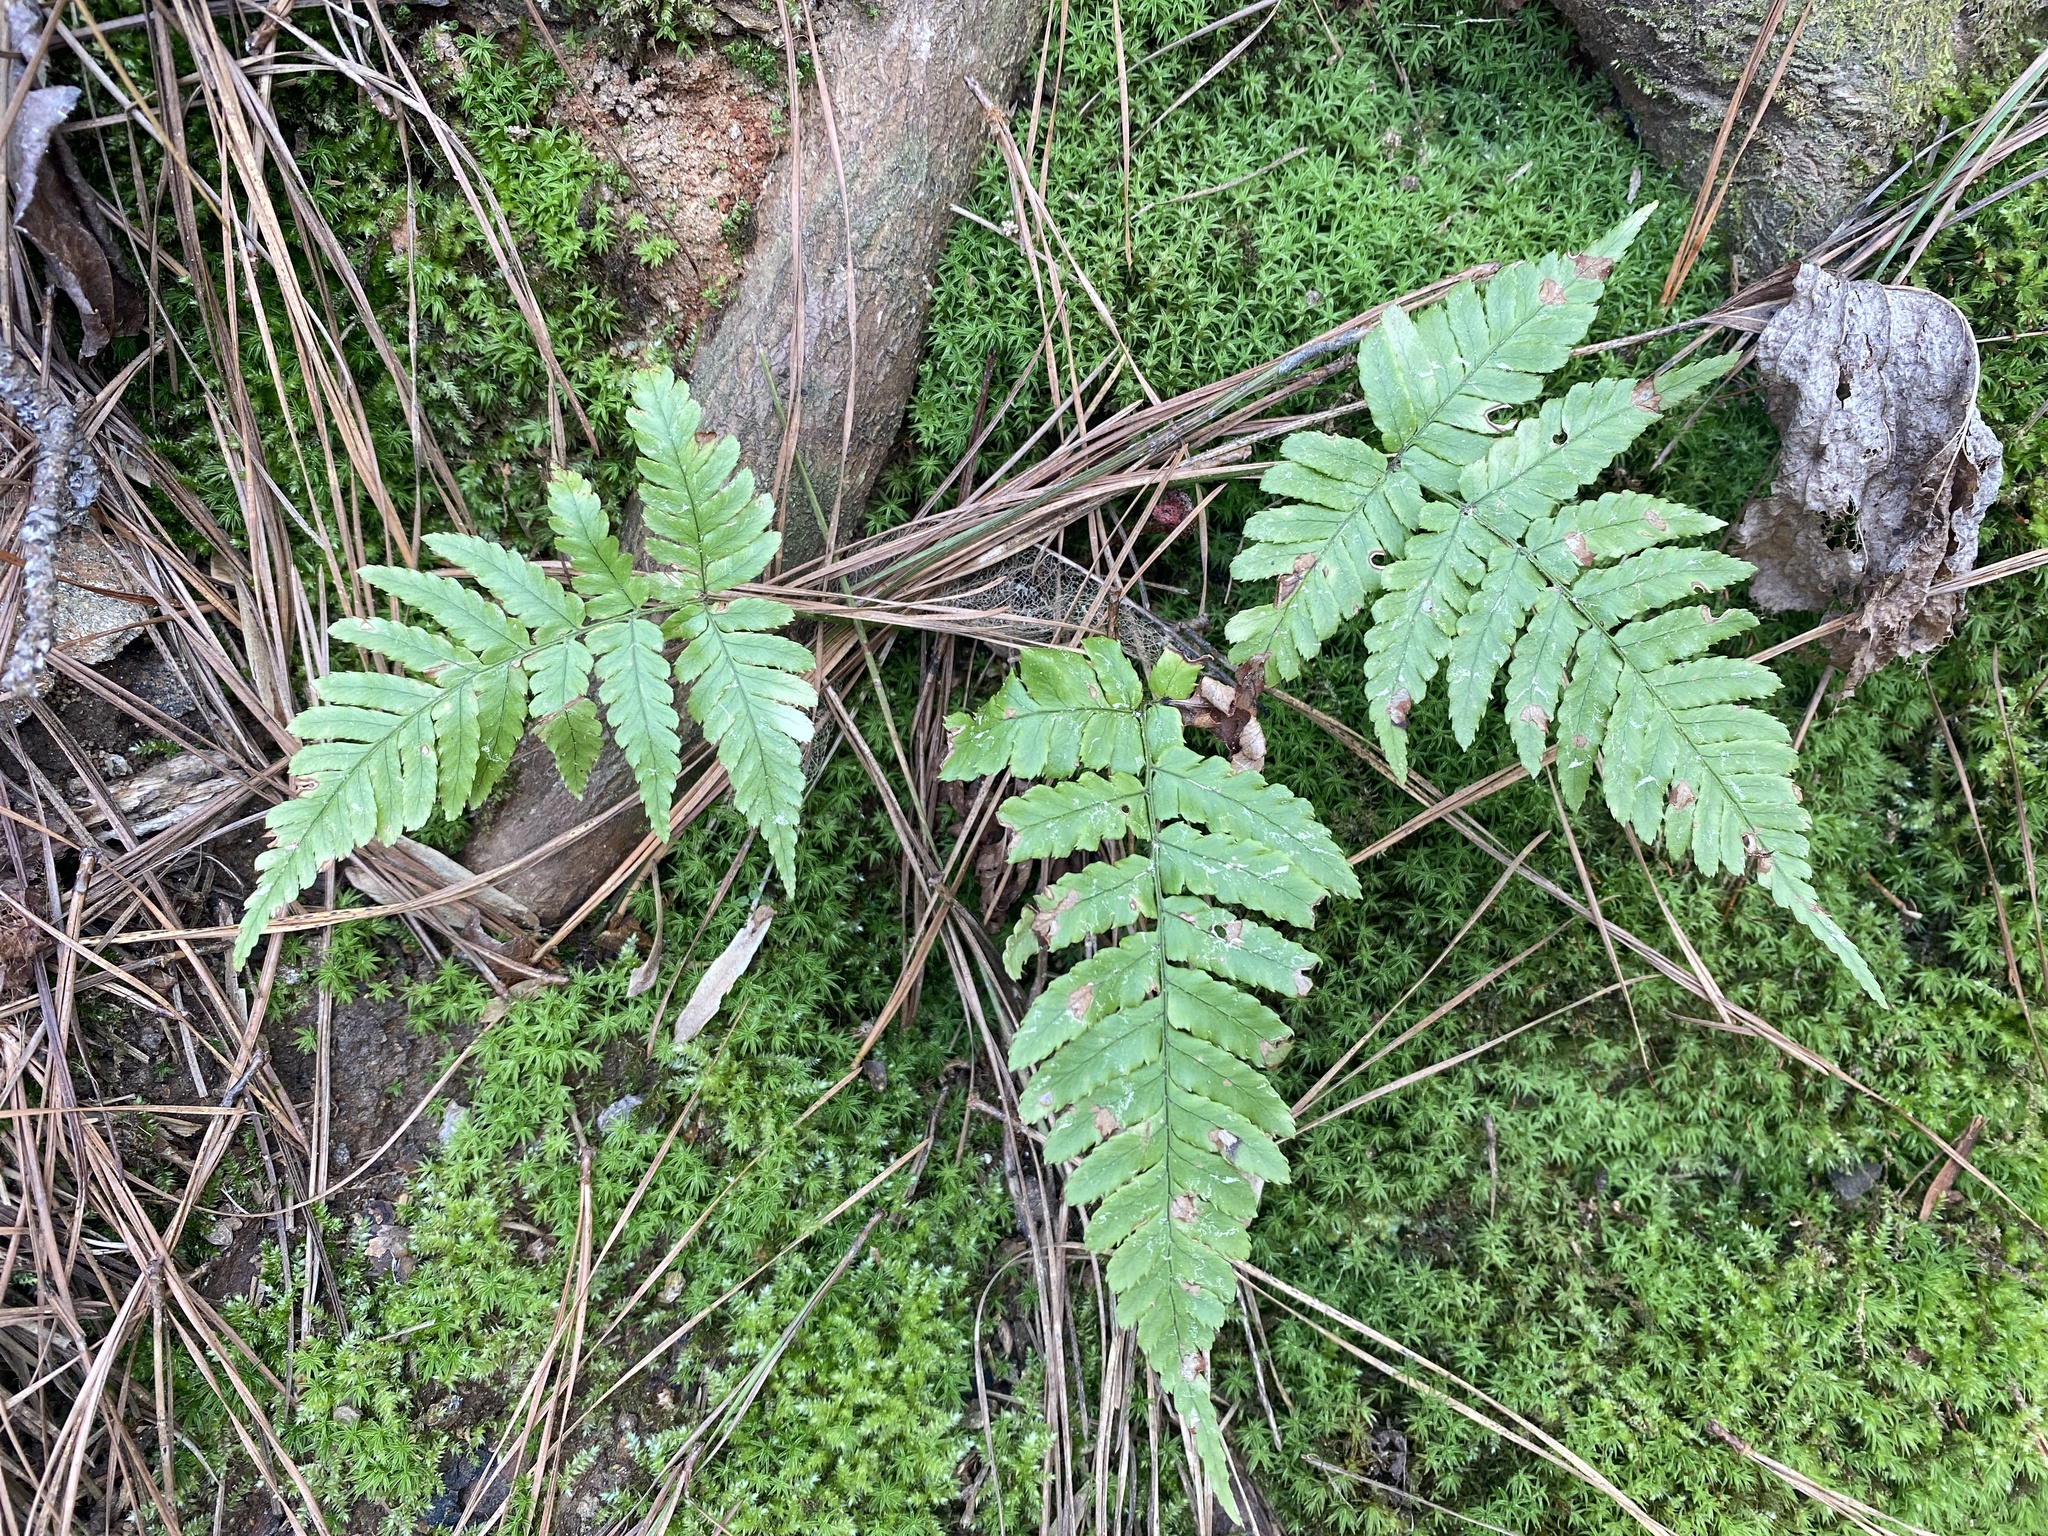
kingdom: Plantae
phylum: Tracheophyta
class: Polypodiopsida
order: Polypodiales
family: Dryopteridaceae
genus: Dryopteris
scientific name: Dryopteris erythrosora
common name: Autumn fern
